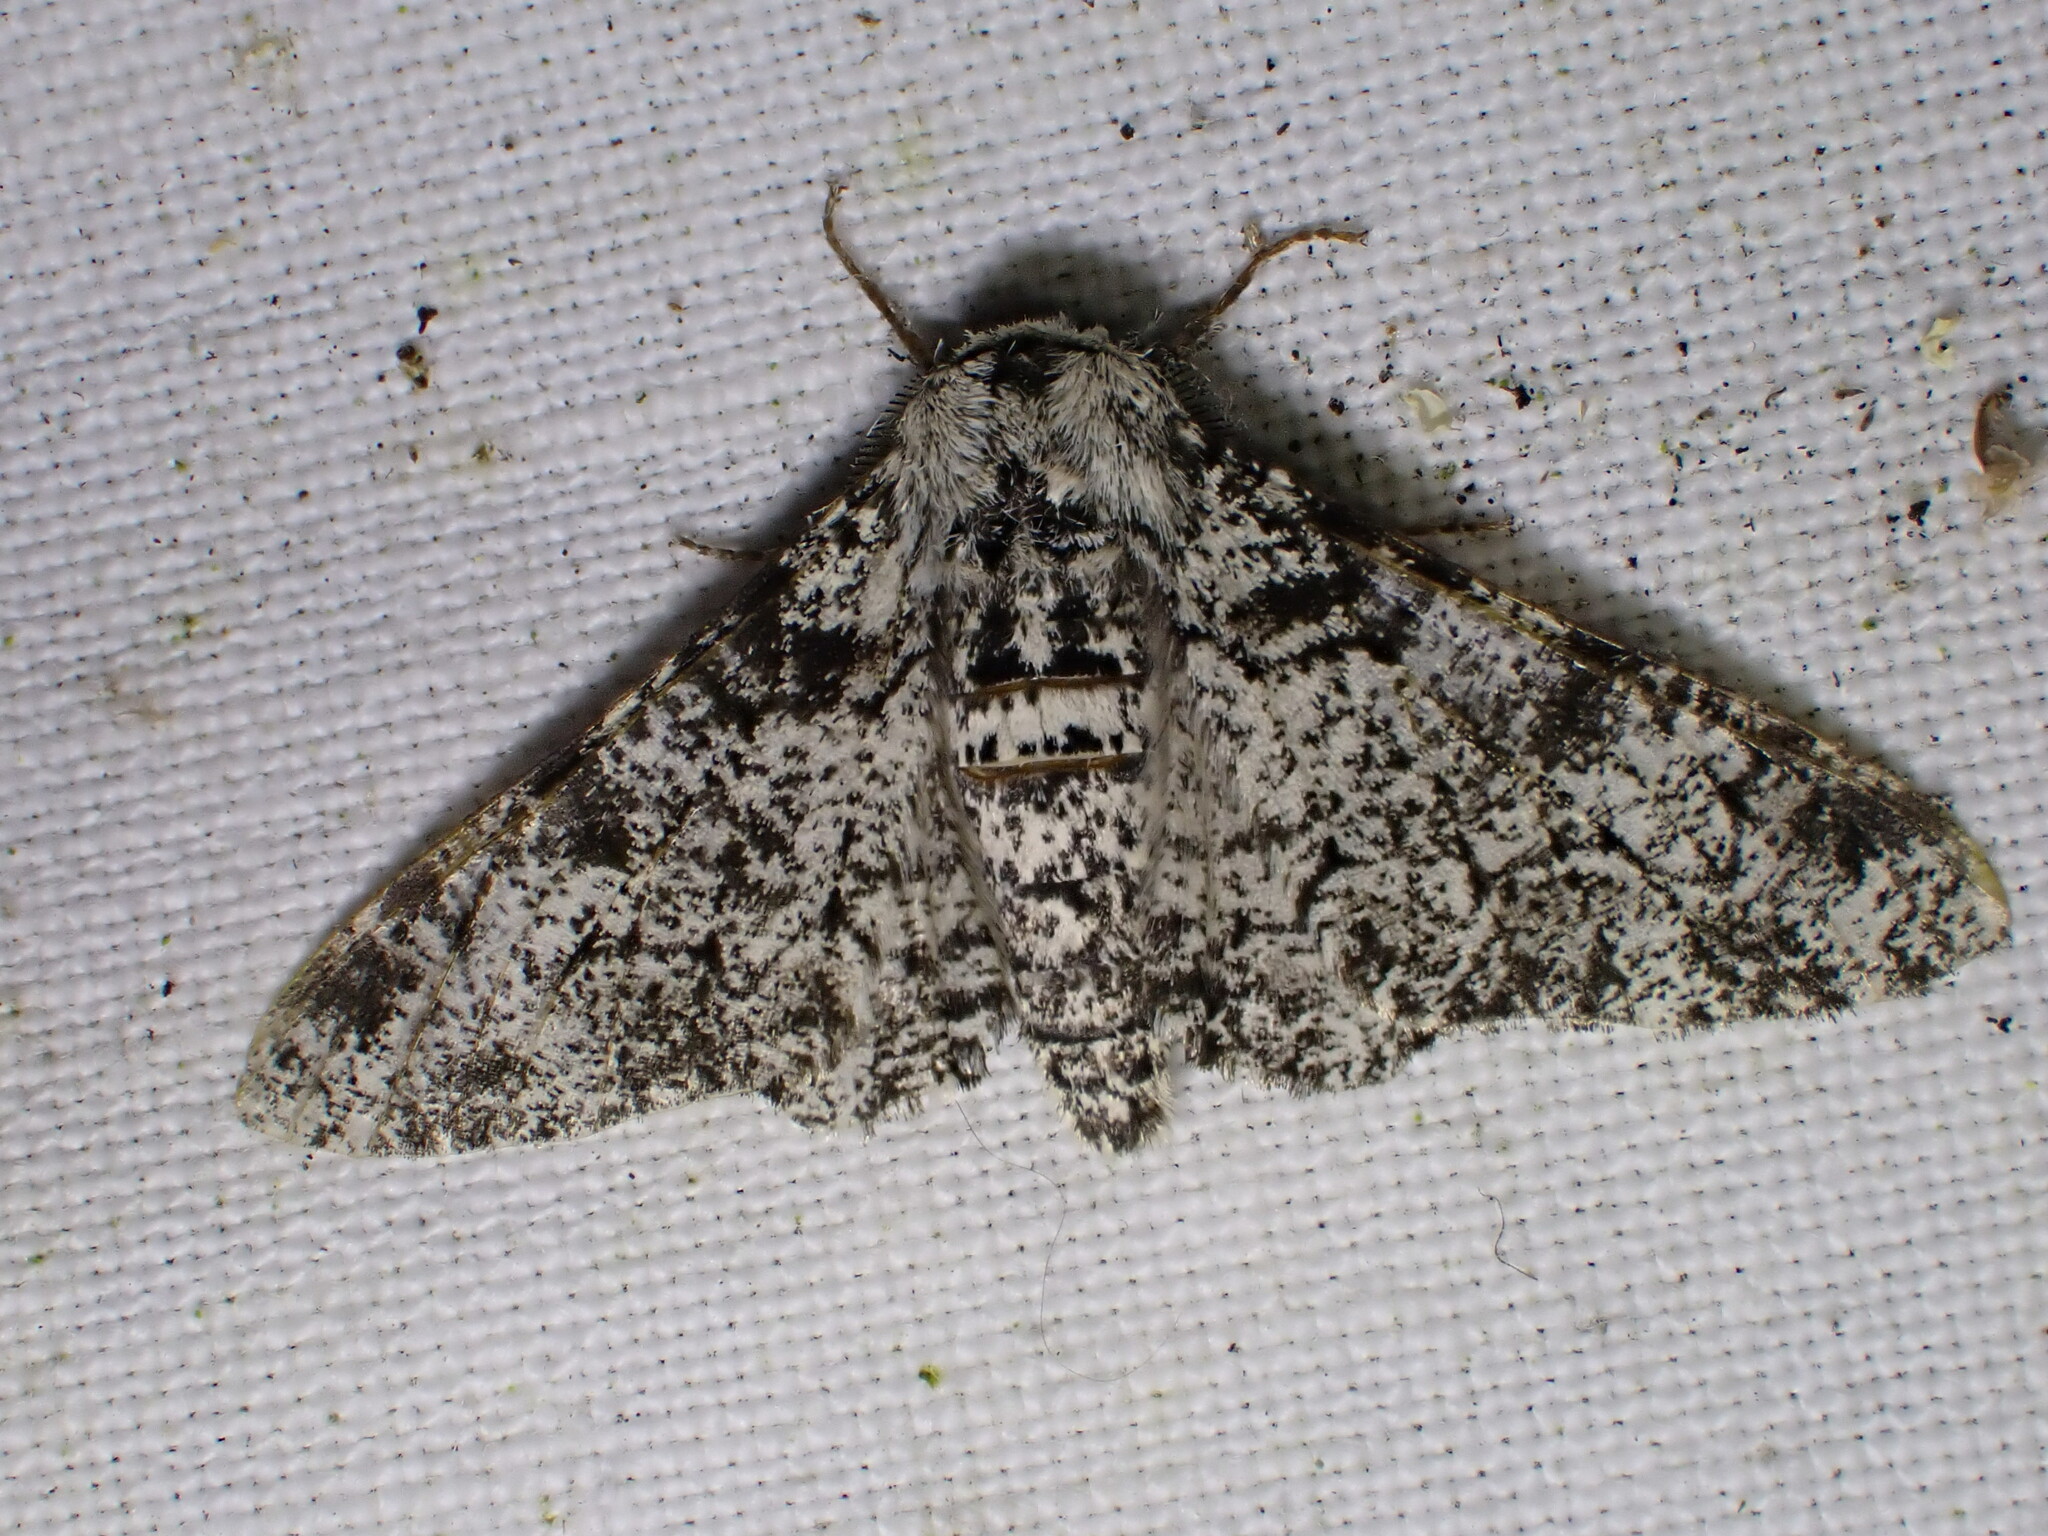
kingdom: Animalia
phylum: Arthropoda
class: Insecta
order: Lepidoptera
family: Geometridae
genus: Biston
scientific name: Biston betularia
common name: Peppered moth
